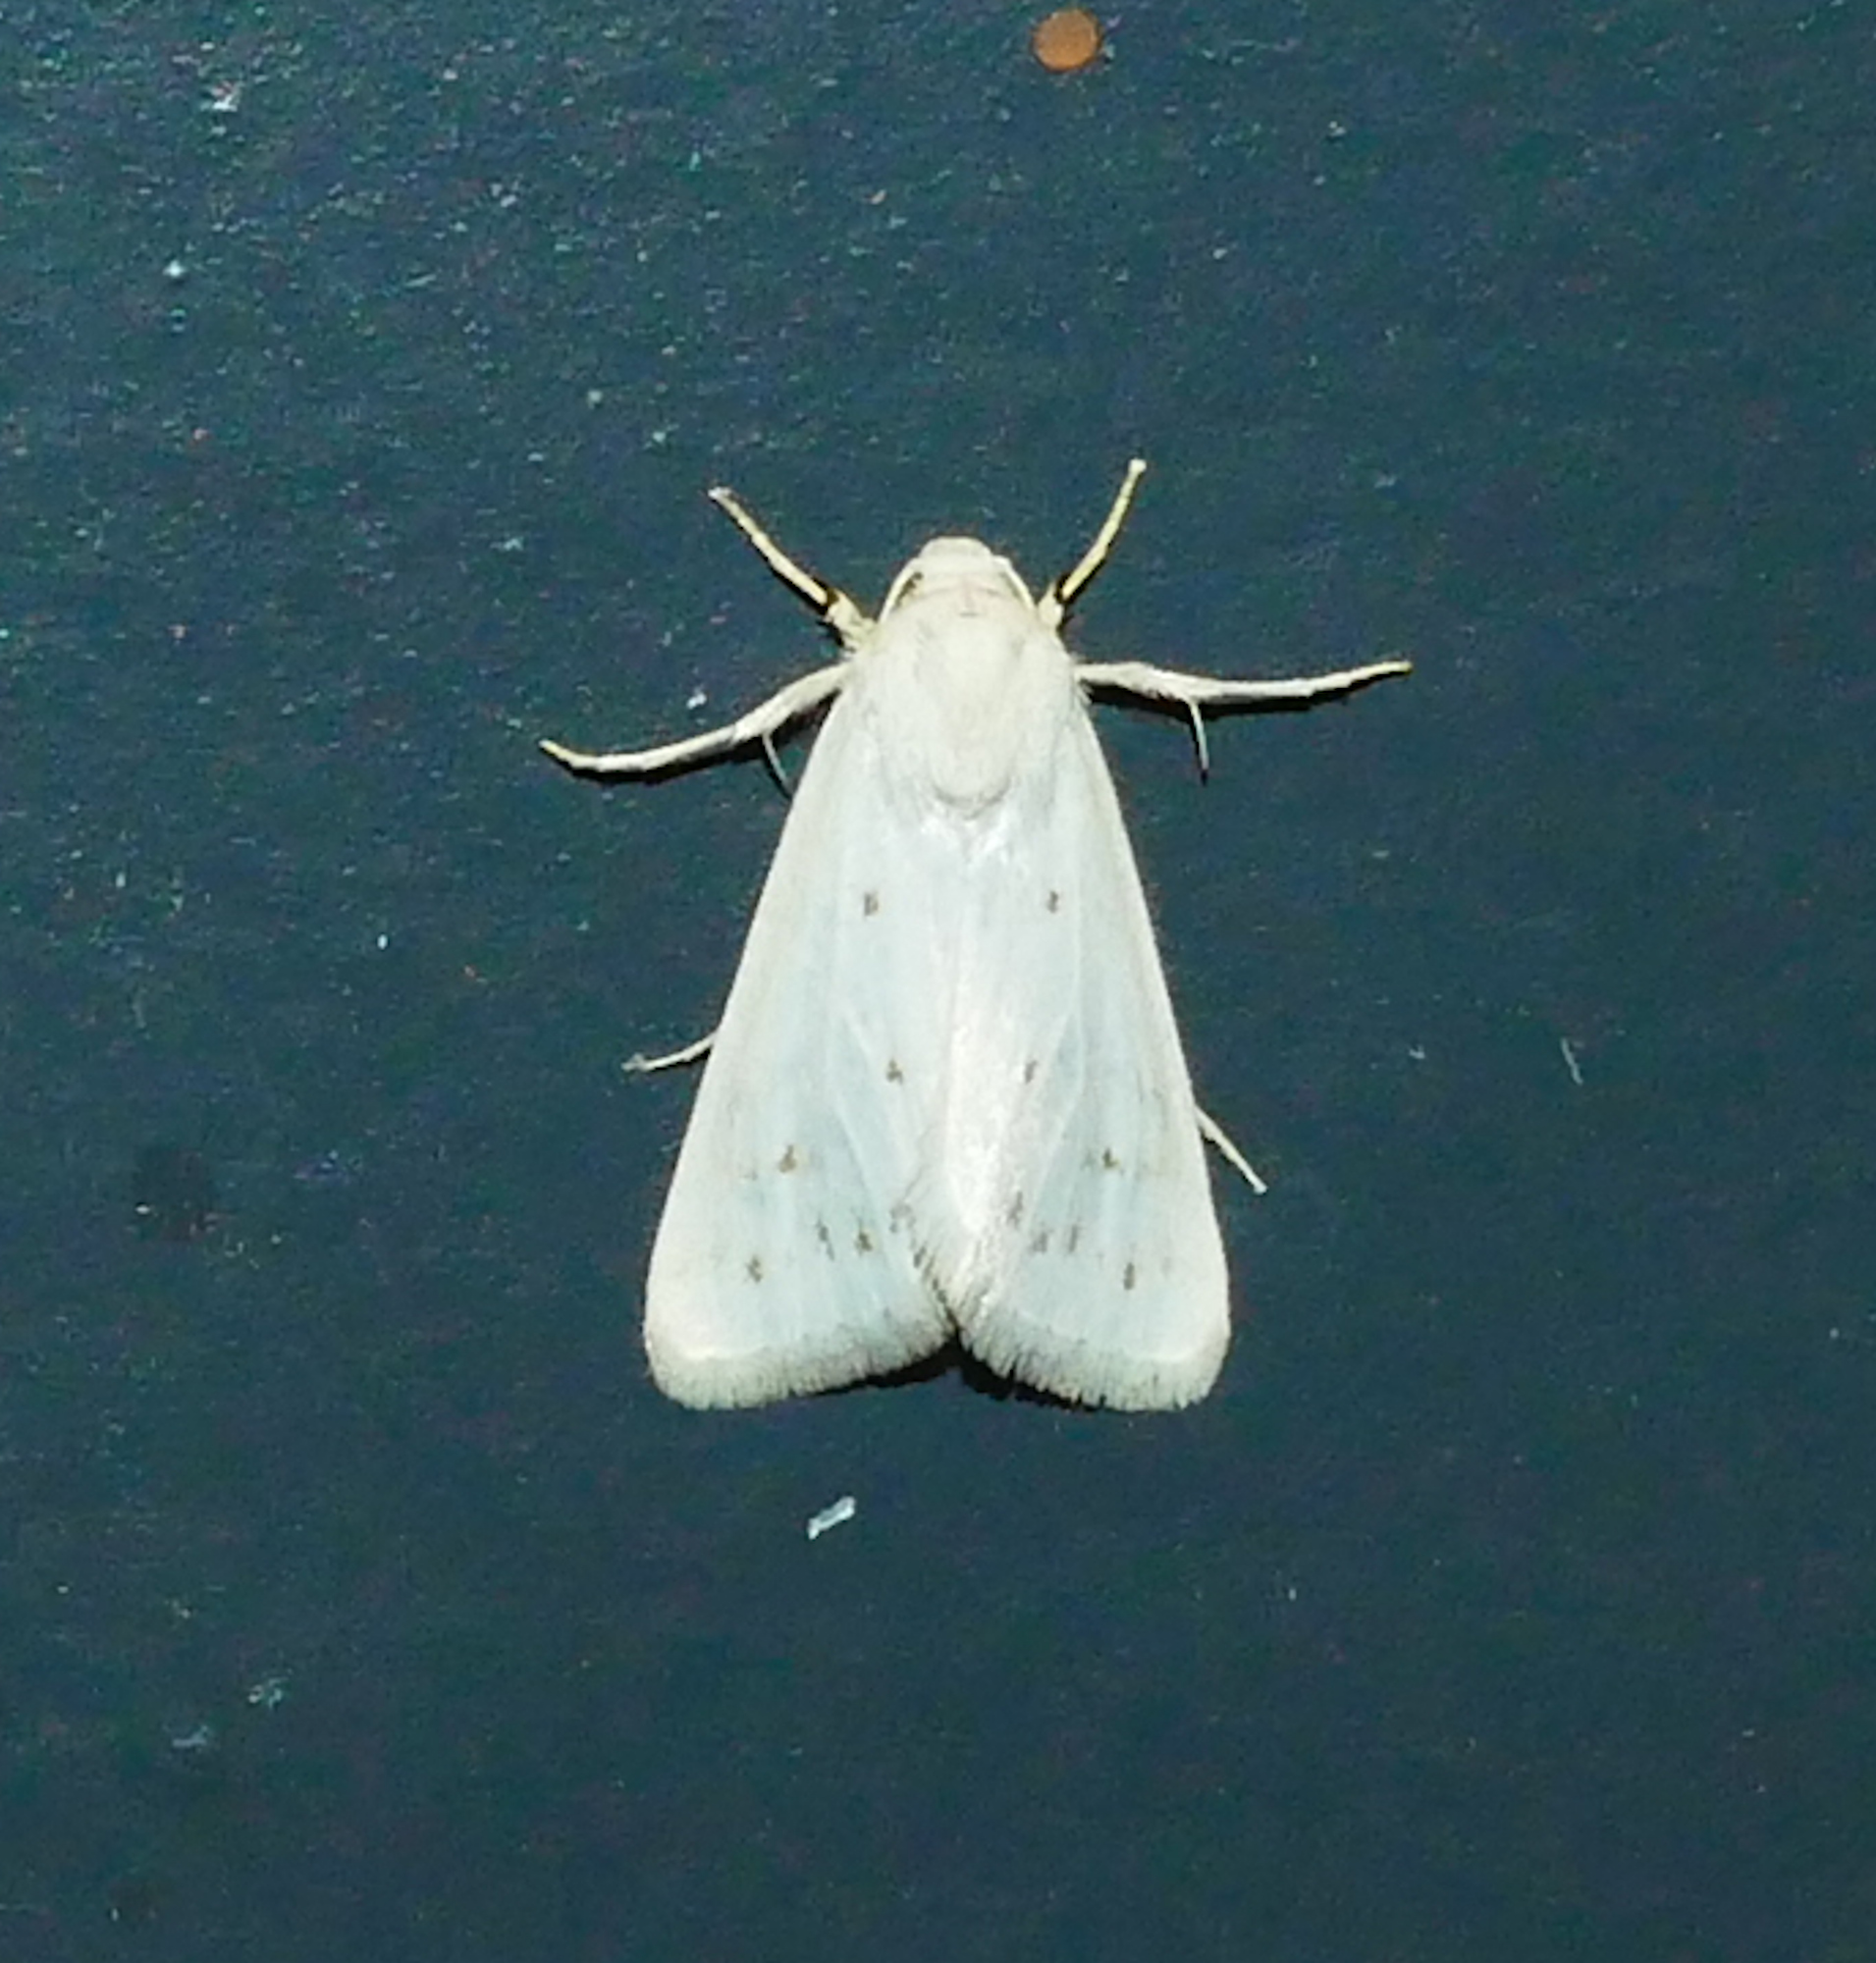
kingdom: Animalia
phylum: Arthropoda
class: Insecta
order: Lepidoptera
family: Noctuidae
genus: Schinia
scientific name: Schinia luxa
